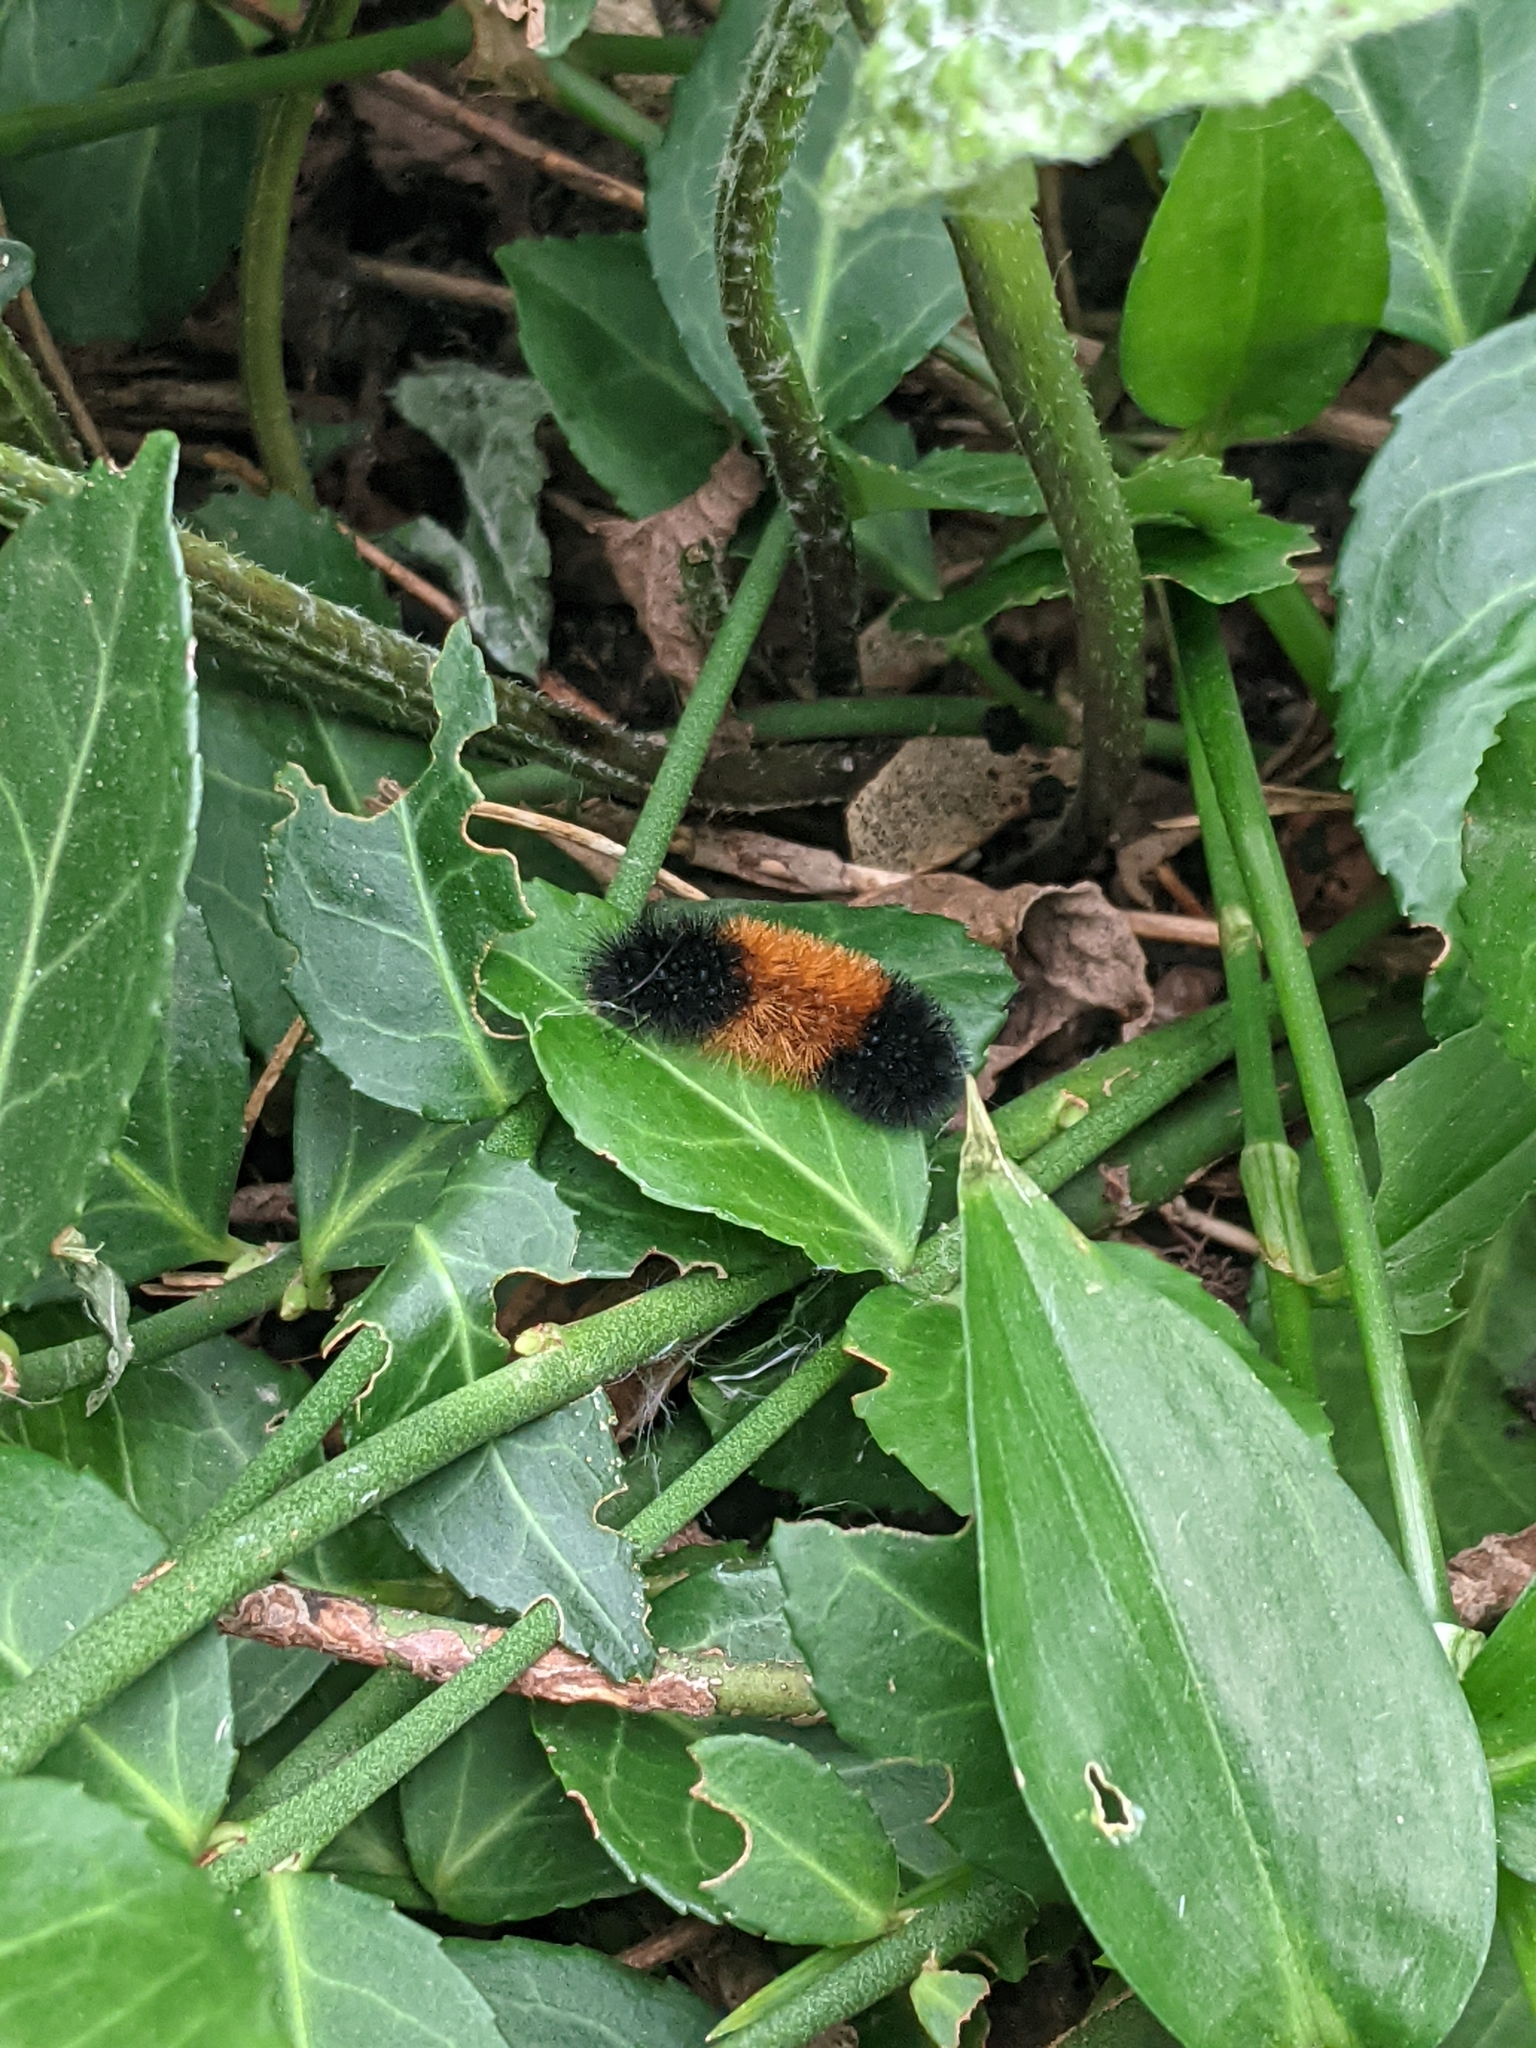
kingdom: Animalia
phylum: Arthropoda
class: Insecta
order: Lepidoptera
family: Erebidae
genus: Pyrrharctia
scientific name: Pyrrharctia isabella
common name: Isabella tiger moth
